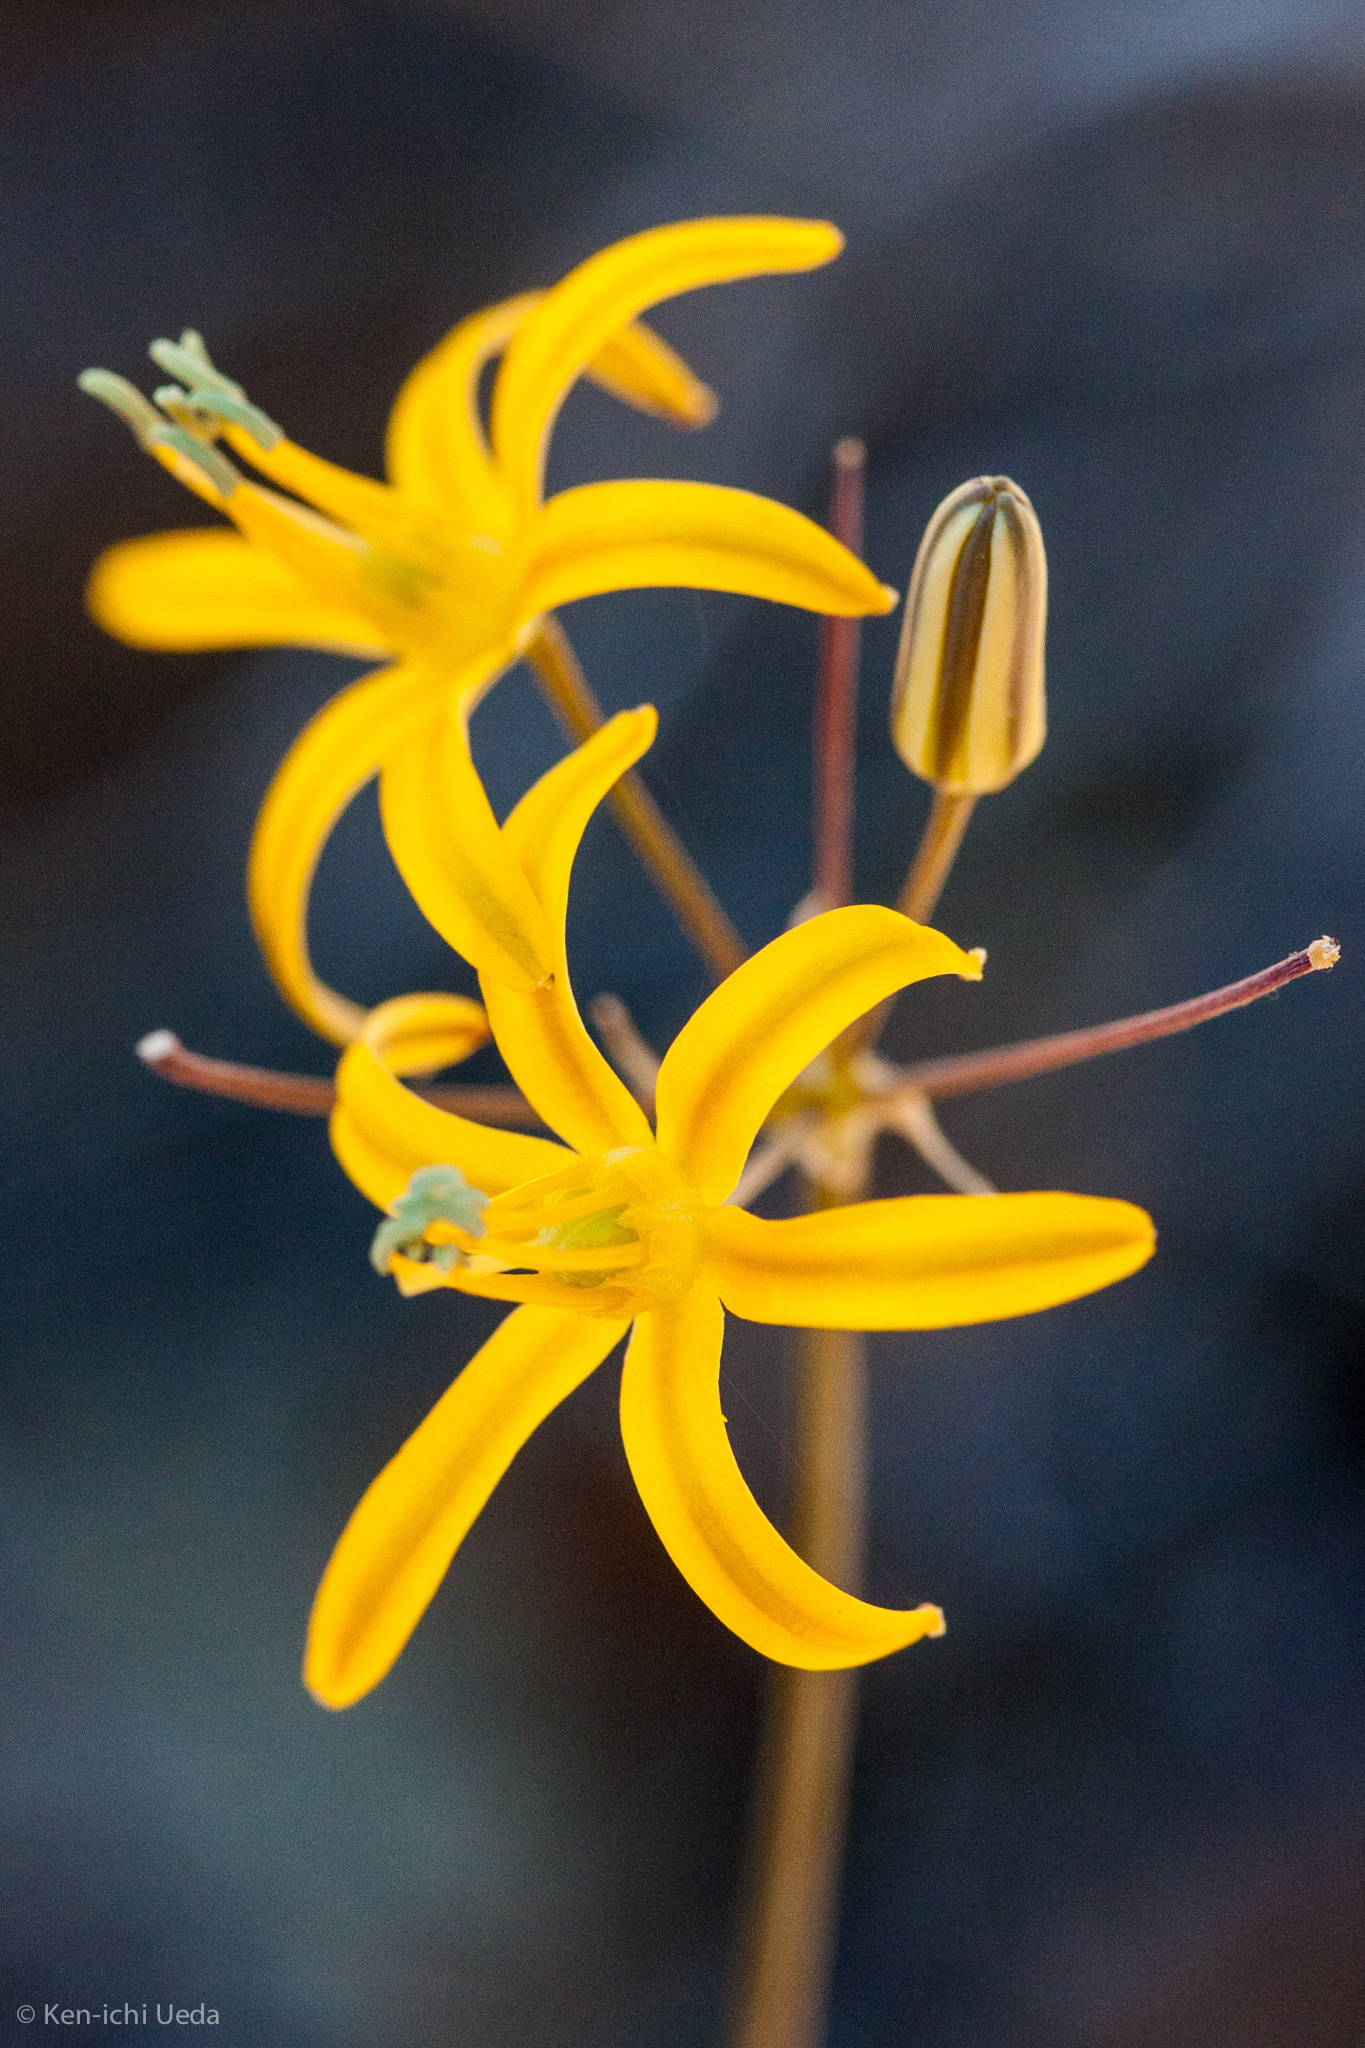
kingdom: Plantae
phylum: Tracheophyta
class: Liliopsida
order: Asparagales
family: Asparagaceae
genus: Bloomeria
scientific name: Bloomeria crocea
